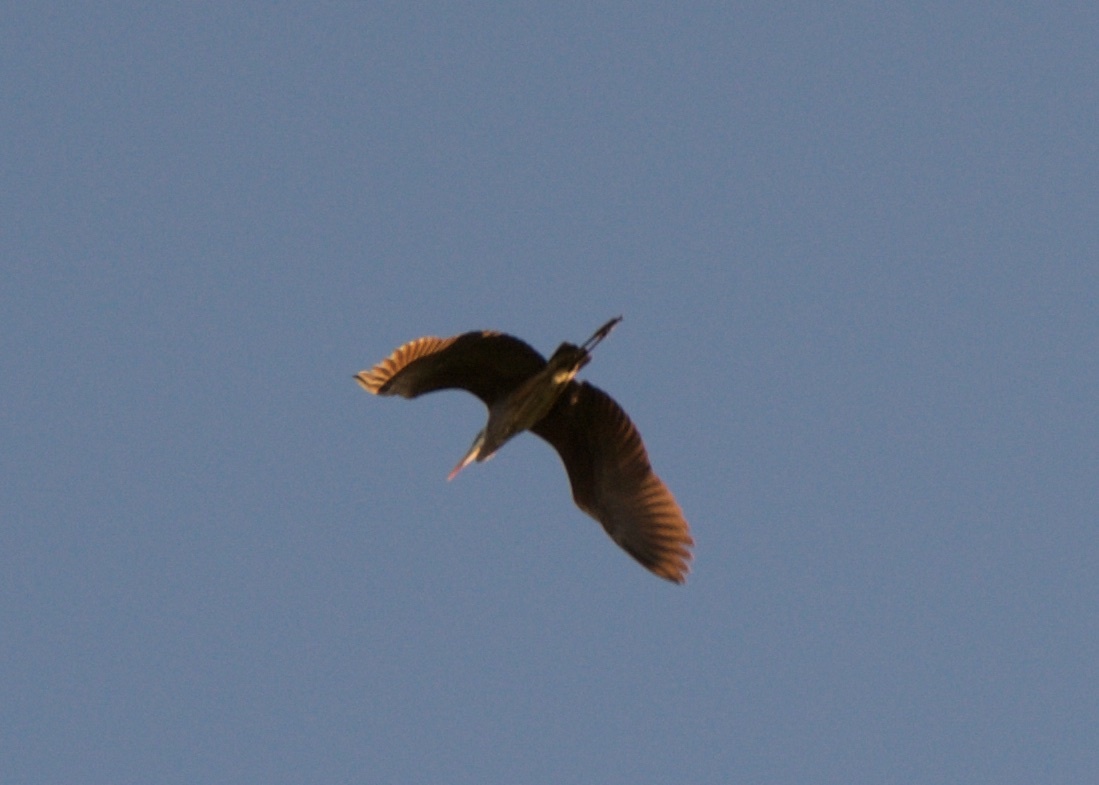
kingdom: Animalia
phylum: Chordata
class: Aves
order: Pelecaniformes
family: Ardeidae
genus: Ardea
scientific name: Ardea herodias
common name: Great blue heron
